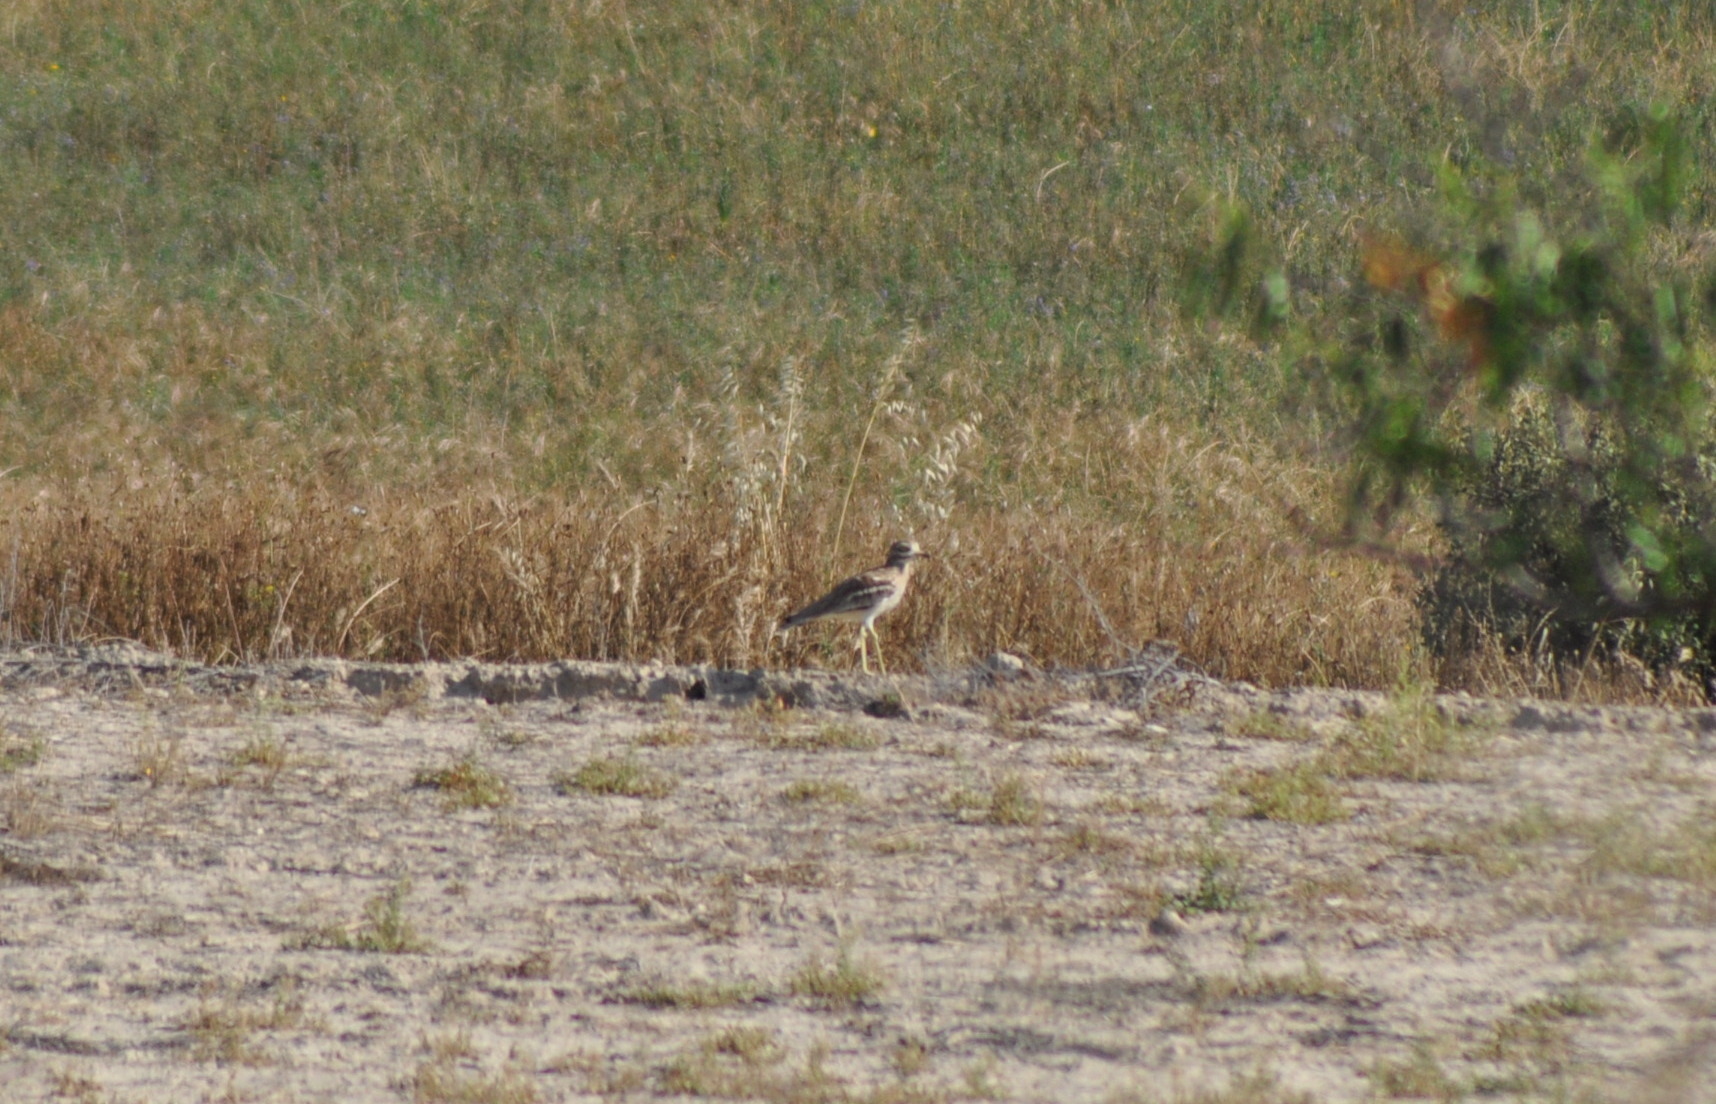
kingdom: Animalia
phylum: Chordata
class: Aves
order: Charadriiformes
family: Burhinidae
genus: Burhinus
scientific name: Burhinus oedicnemus
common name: Eurasian stone-curlew
